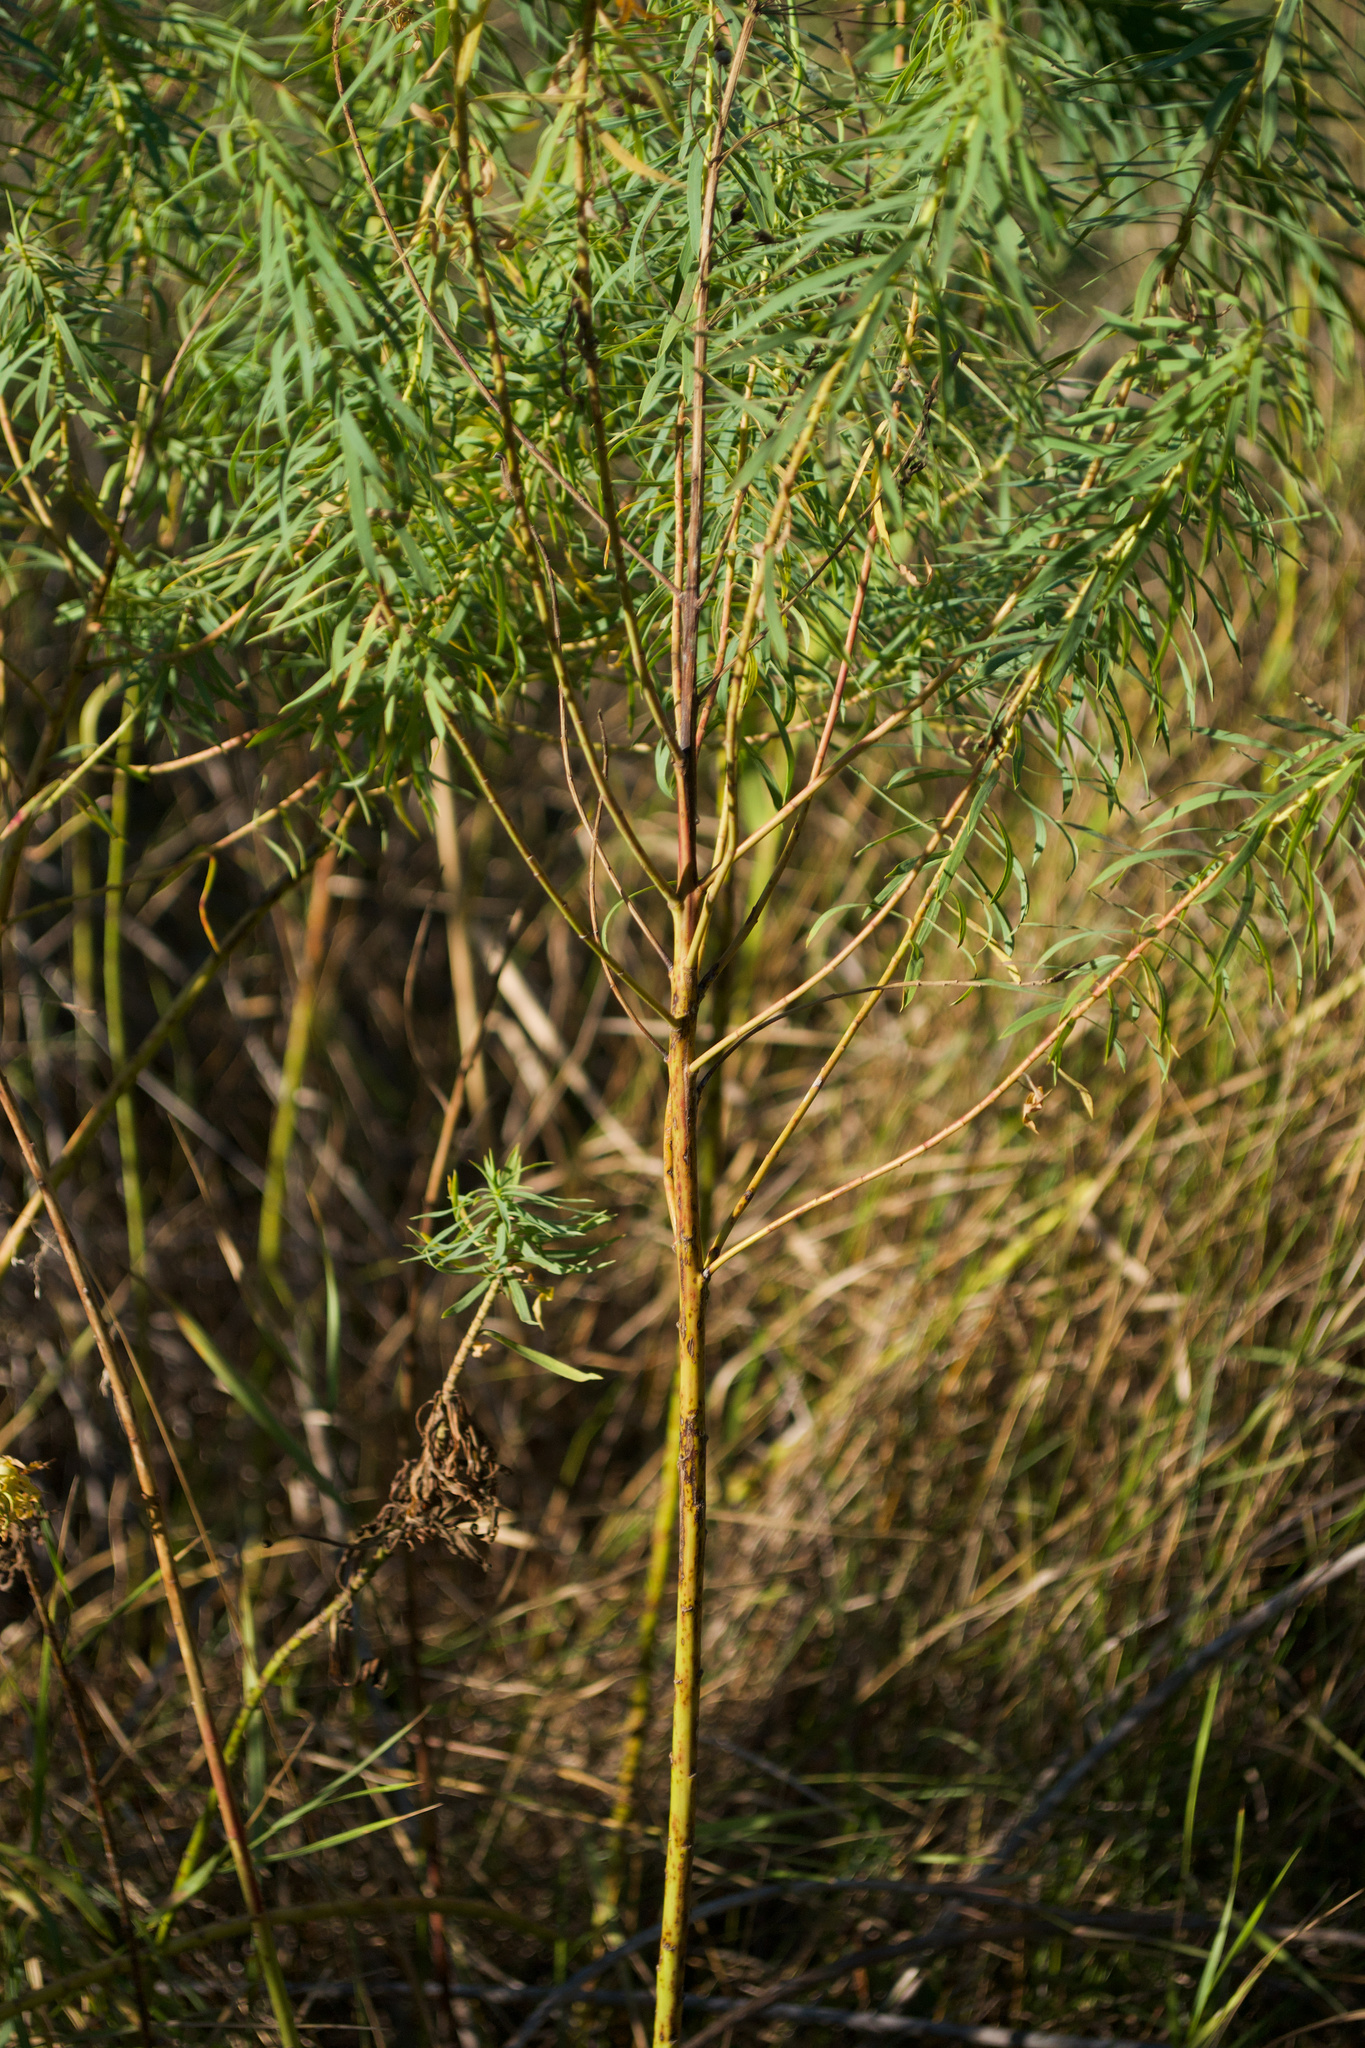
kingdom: Plantae
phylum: Tracheophyta
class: Magnoliopsida
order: Malpighiales
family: Euphorbiaceae
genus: Euphorbia
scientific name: Euphorbia virgata
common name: Leafy spurge
